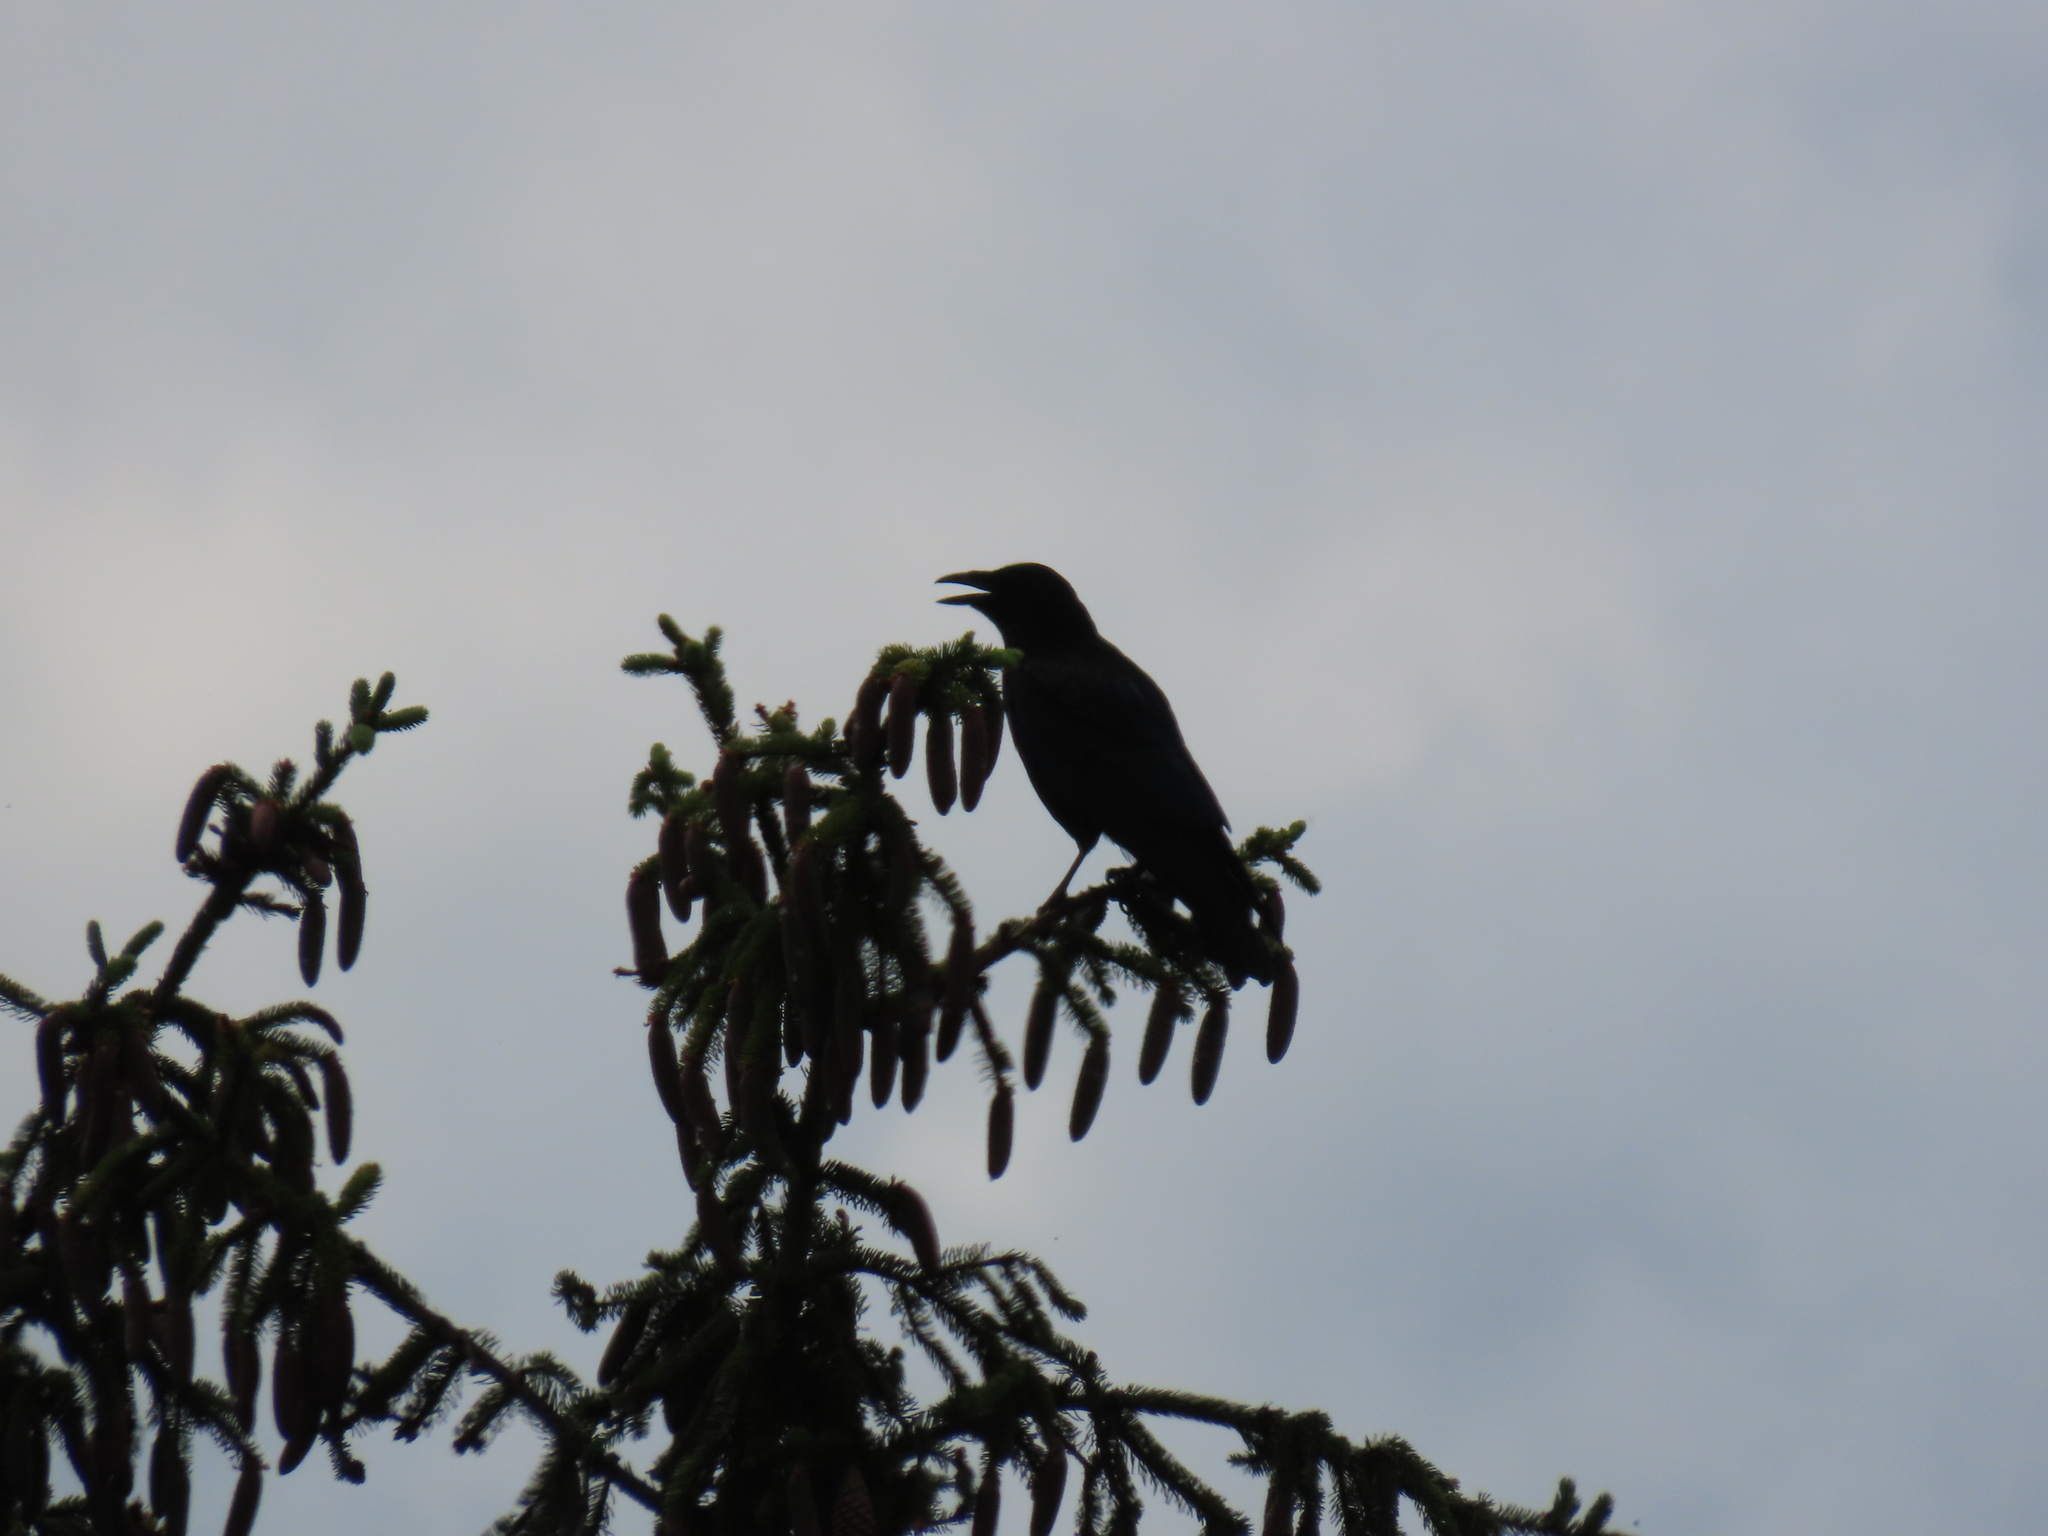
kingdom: Animalia
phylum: Chordata
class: Aves
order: Passeriformes
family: Corvidae
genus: Corvus
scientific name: Corvus corone
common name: Carrion crow
